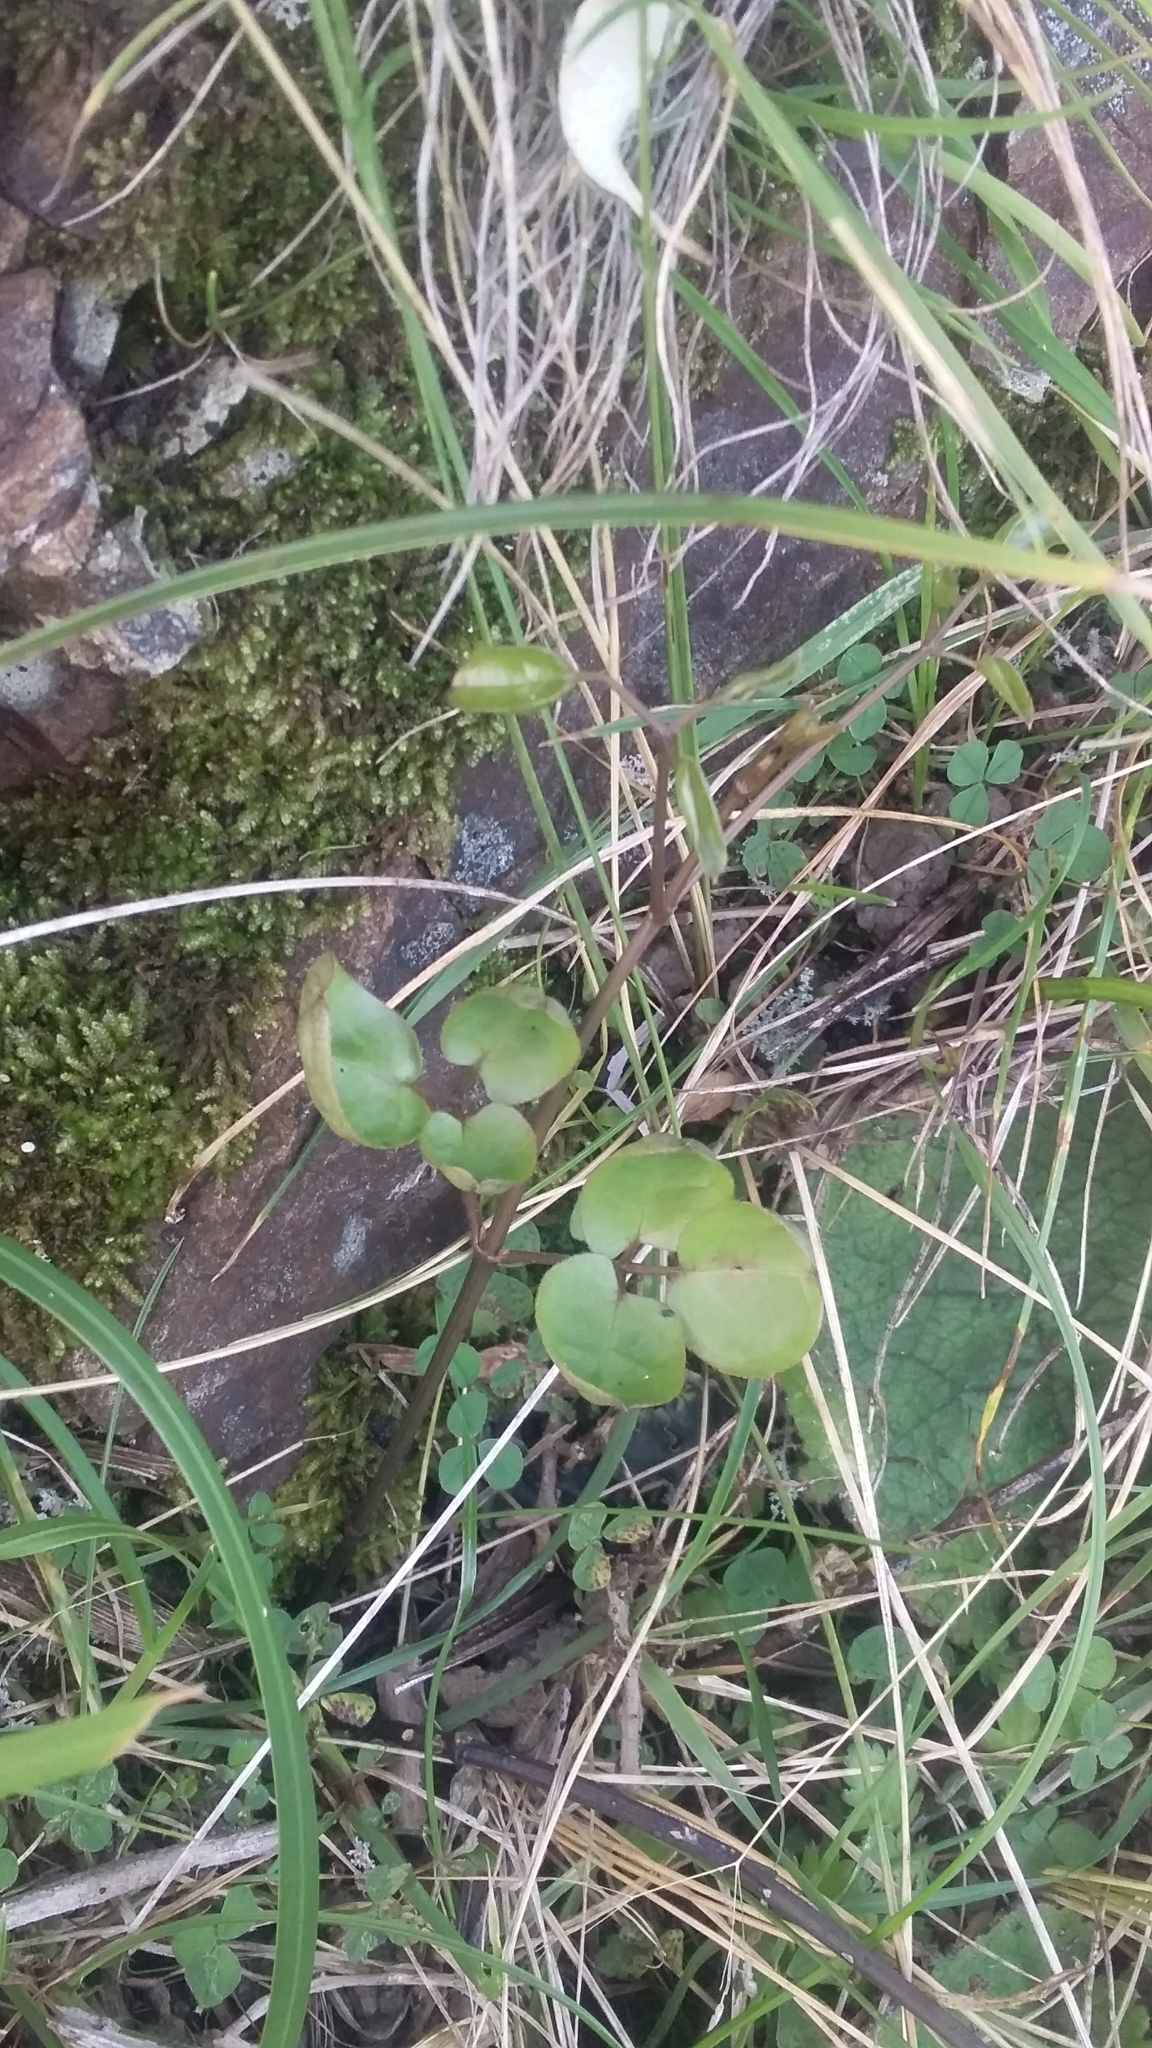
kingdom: Plantae
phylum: Tracheophyta
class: Magnoliopsida
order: Ranunculales
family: Ranunculaceae
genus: Clematis
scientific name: Clematis forsteri
